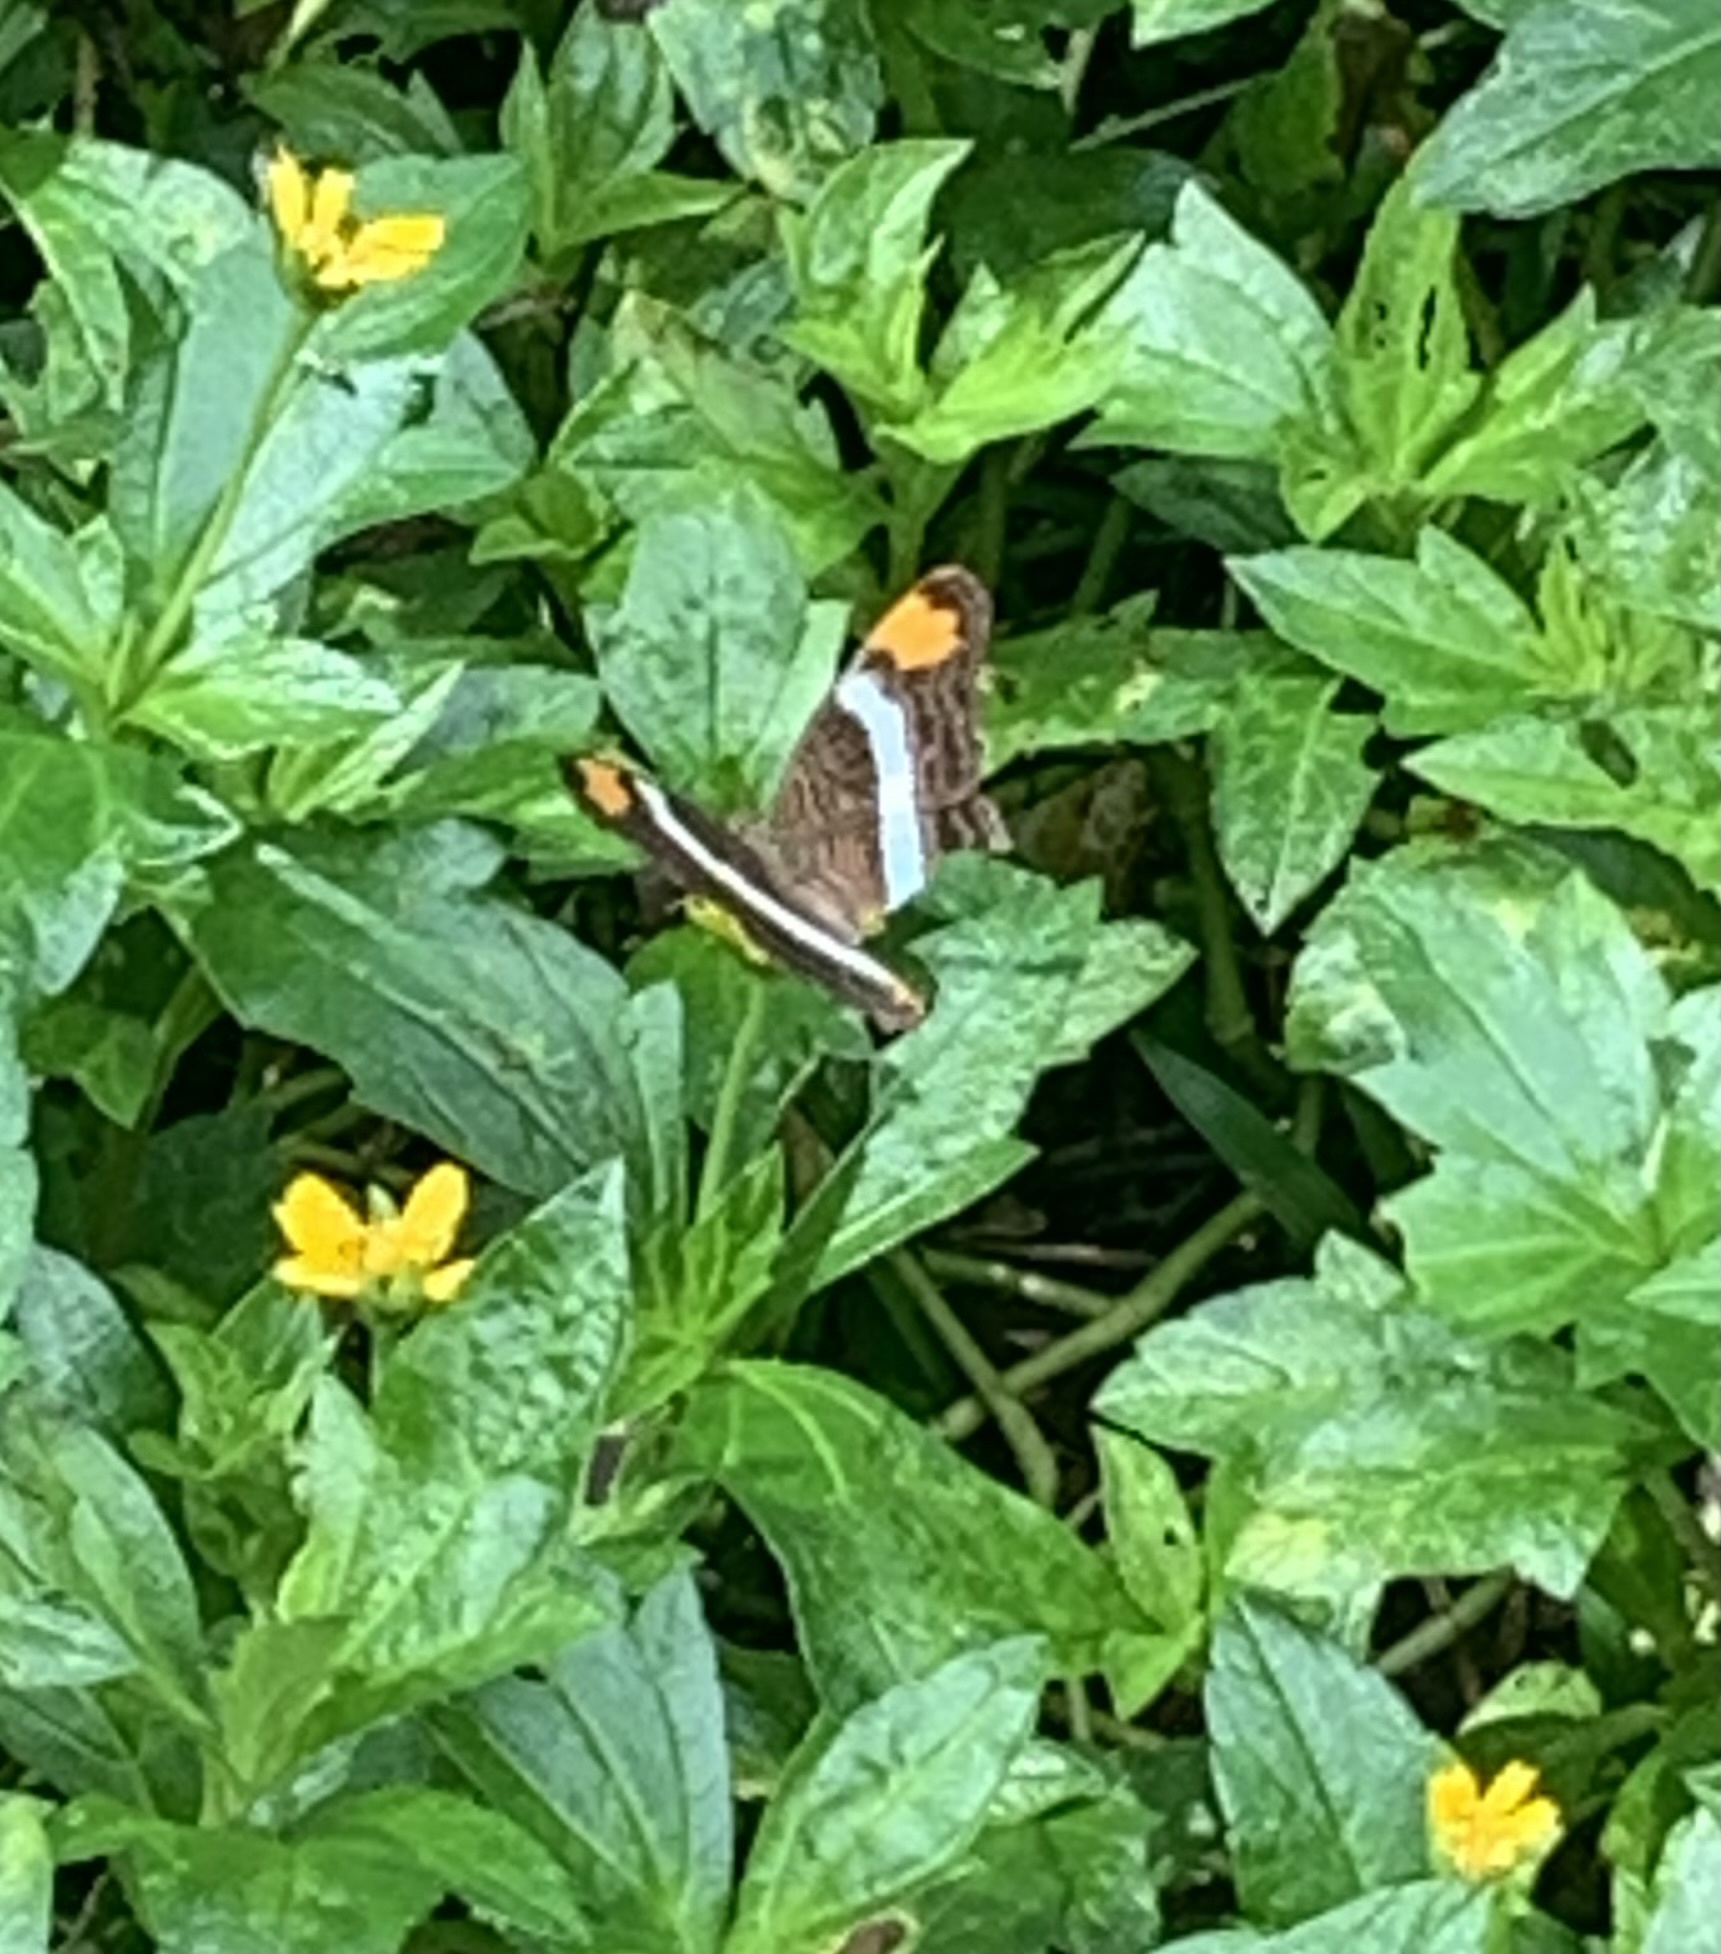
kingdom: Animalia
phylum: Arthropoda
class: Insecta
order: Lepidoptera
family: Nymphalidae
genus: Limenitis
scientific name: Limenitis fessonia
